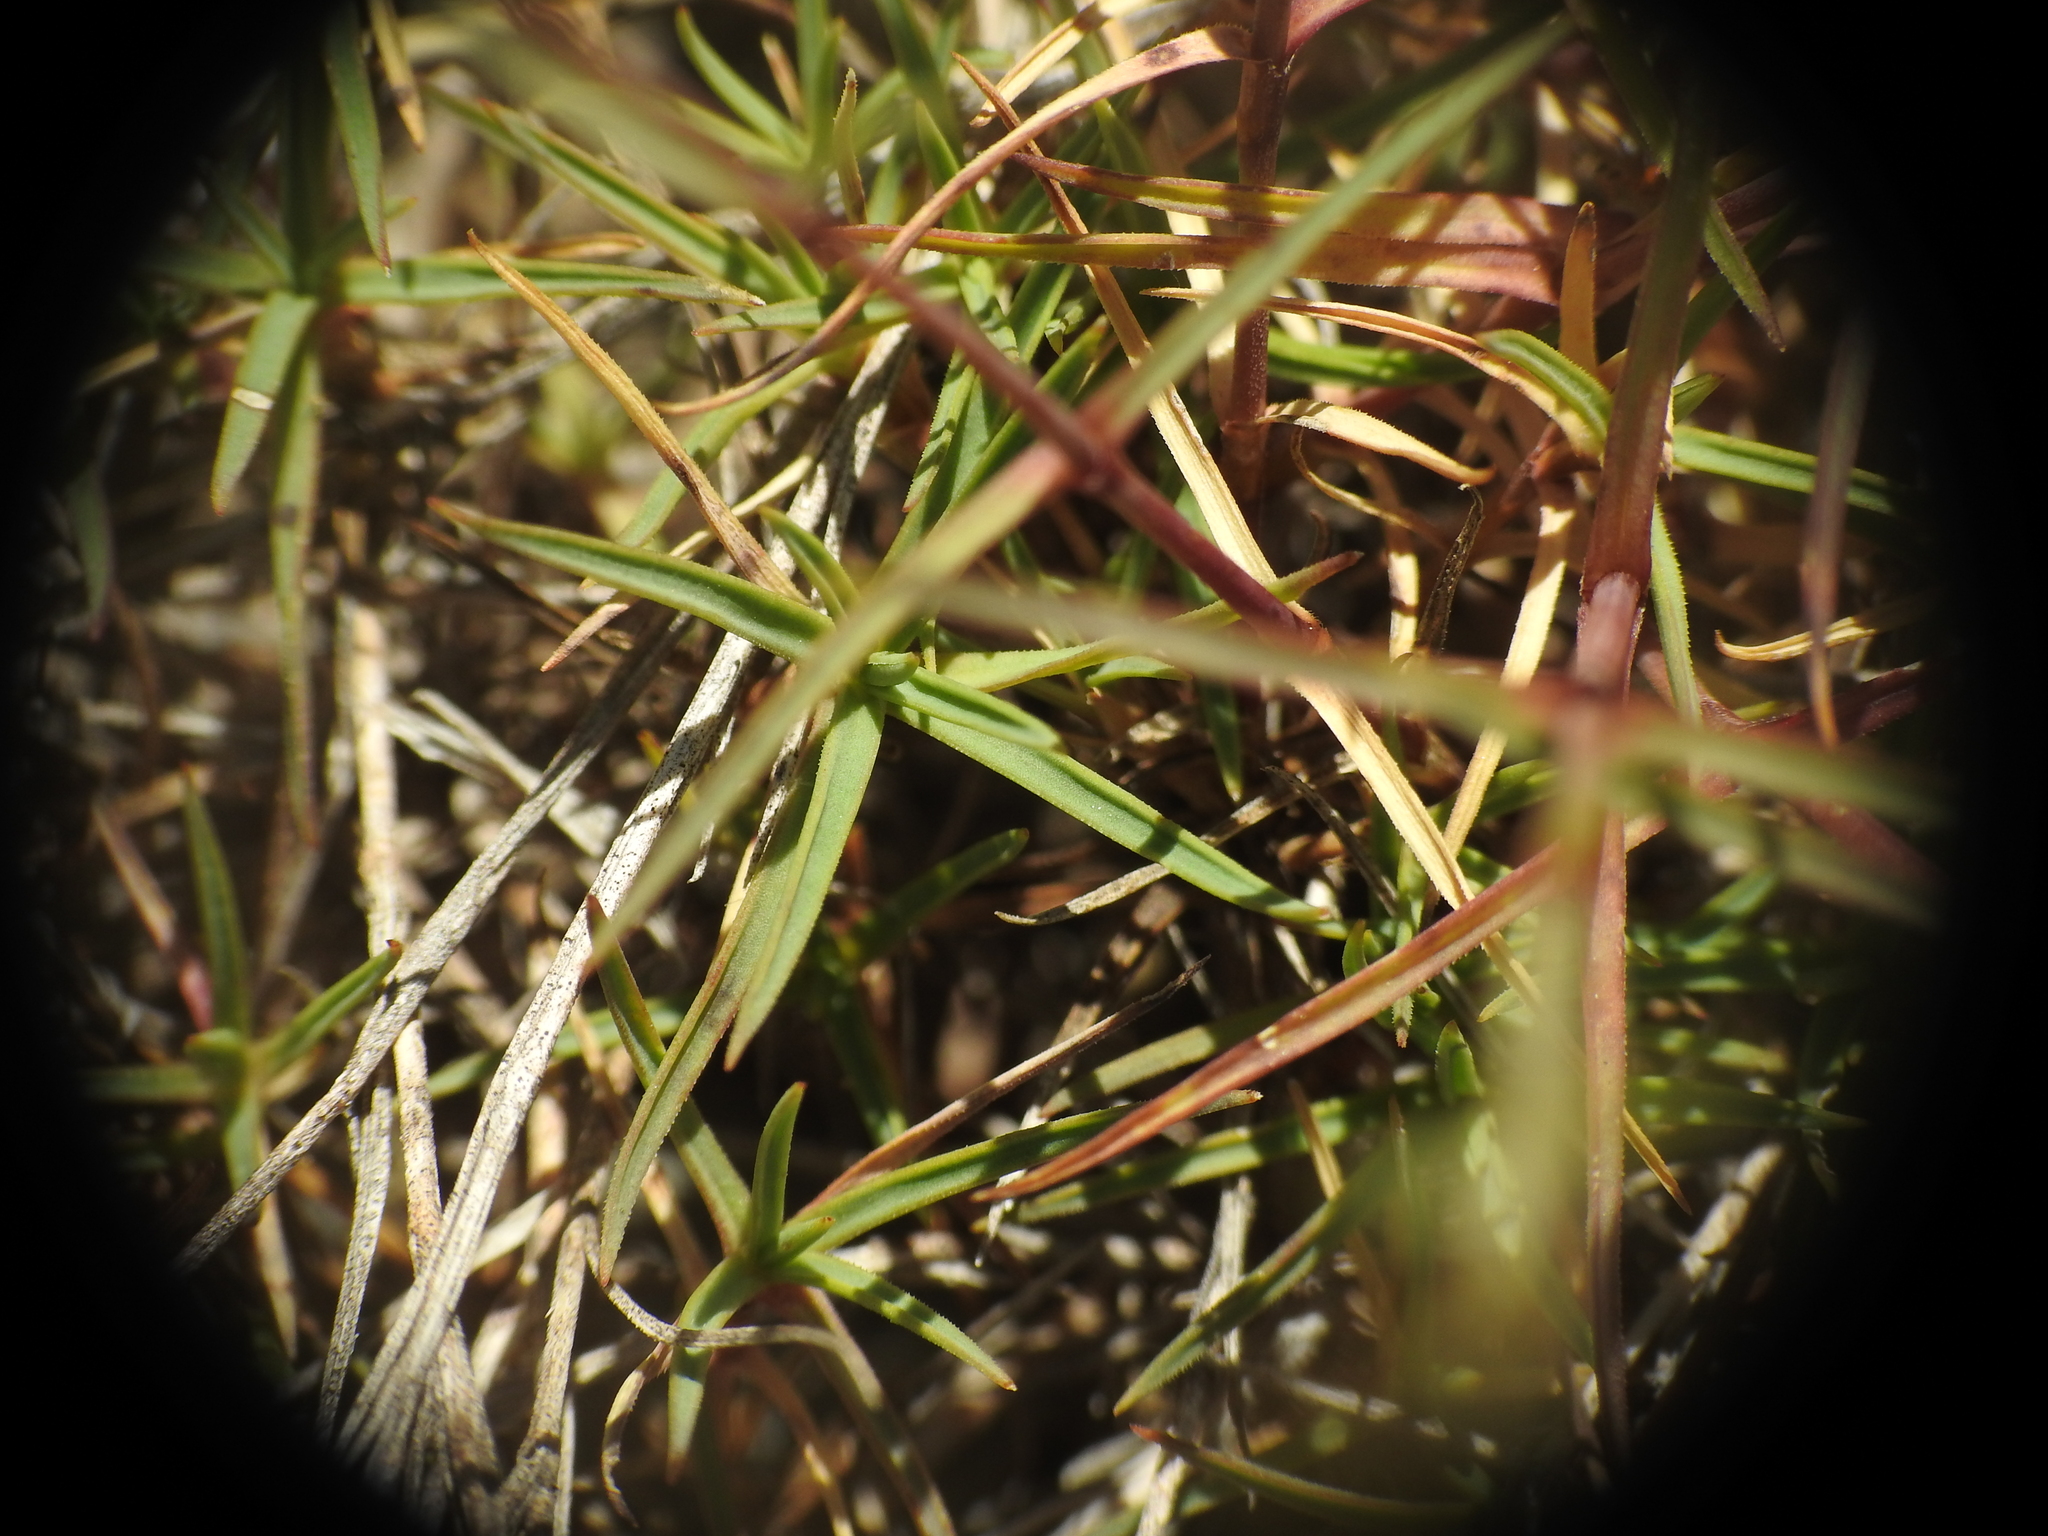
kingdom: Plantae
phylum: Tracheophyta
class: Magnoliopsida
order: Caryophyllales
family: Caryophyllaceae
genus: Dianthus
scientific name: Dianthus graniticus
